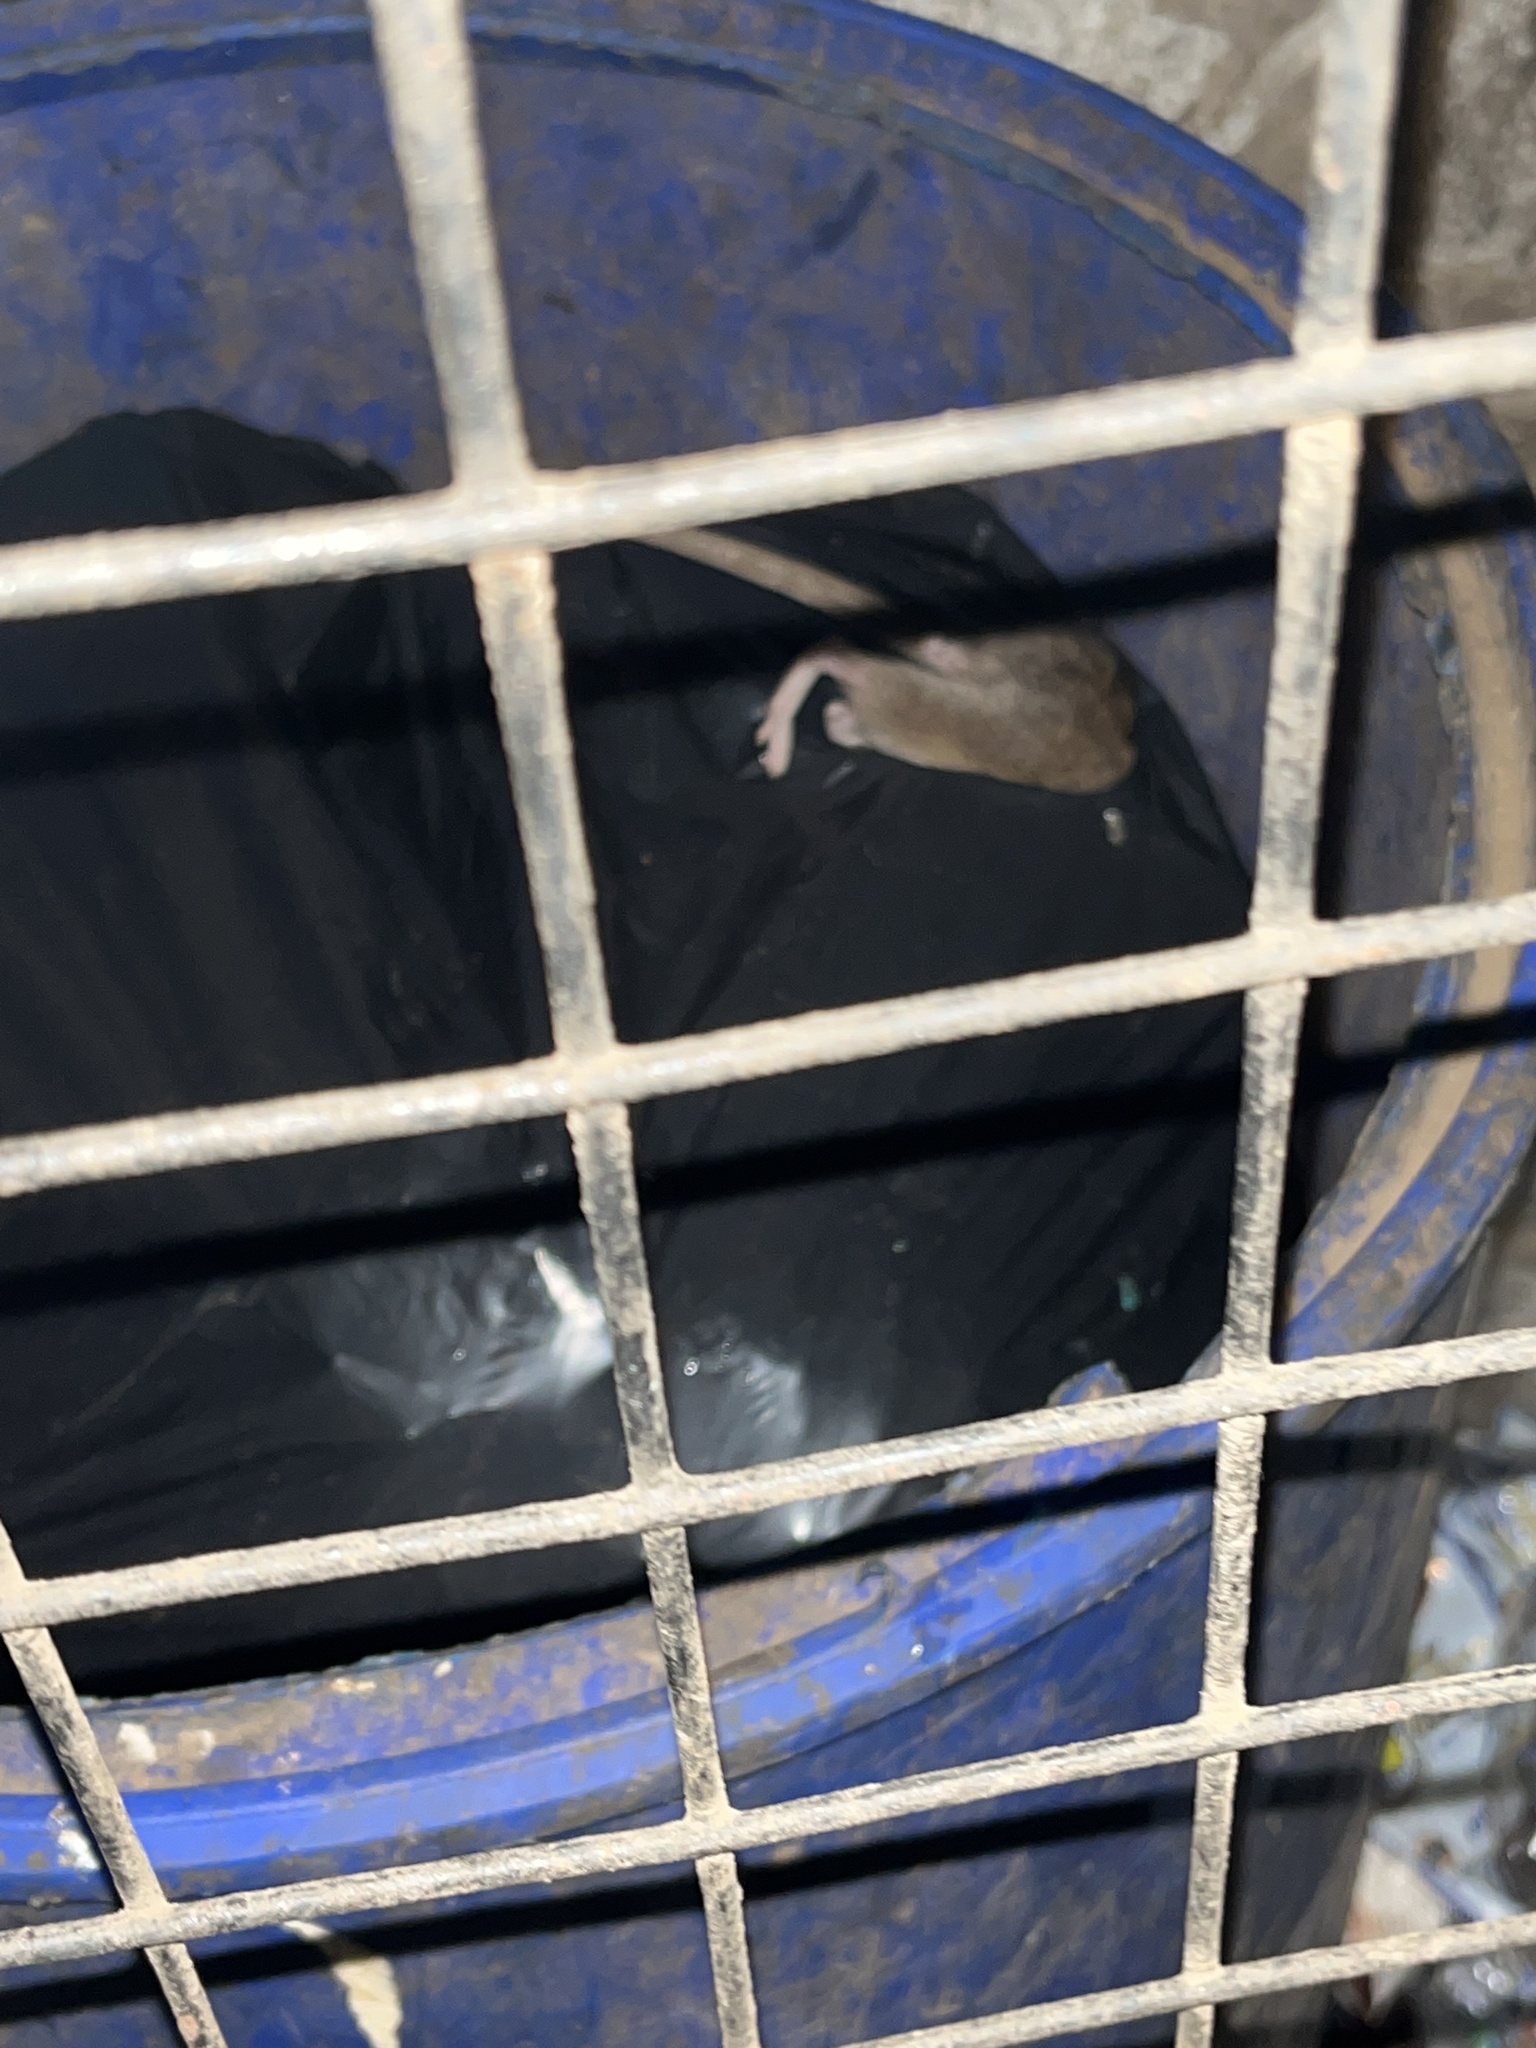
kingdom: Animalia
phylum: Chordata
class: Mammalia
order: Rodentia
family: Muridae
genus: Rattus
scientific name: Rattus
